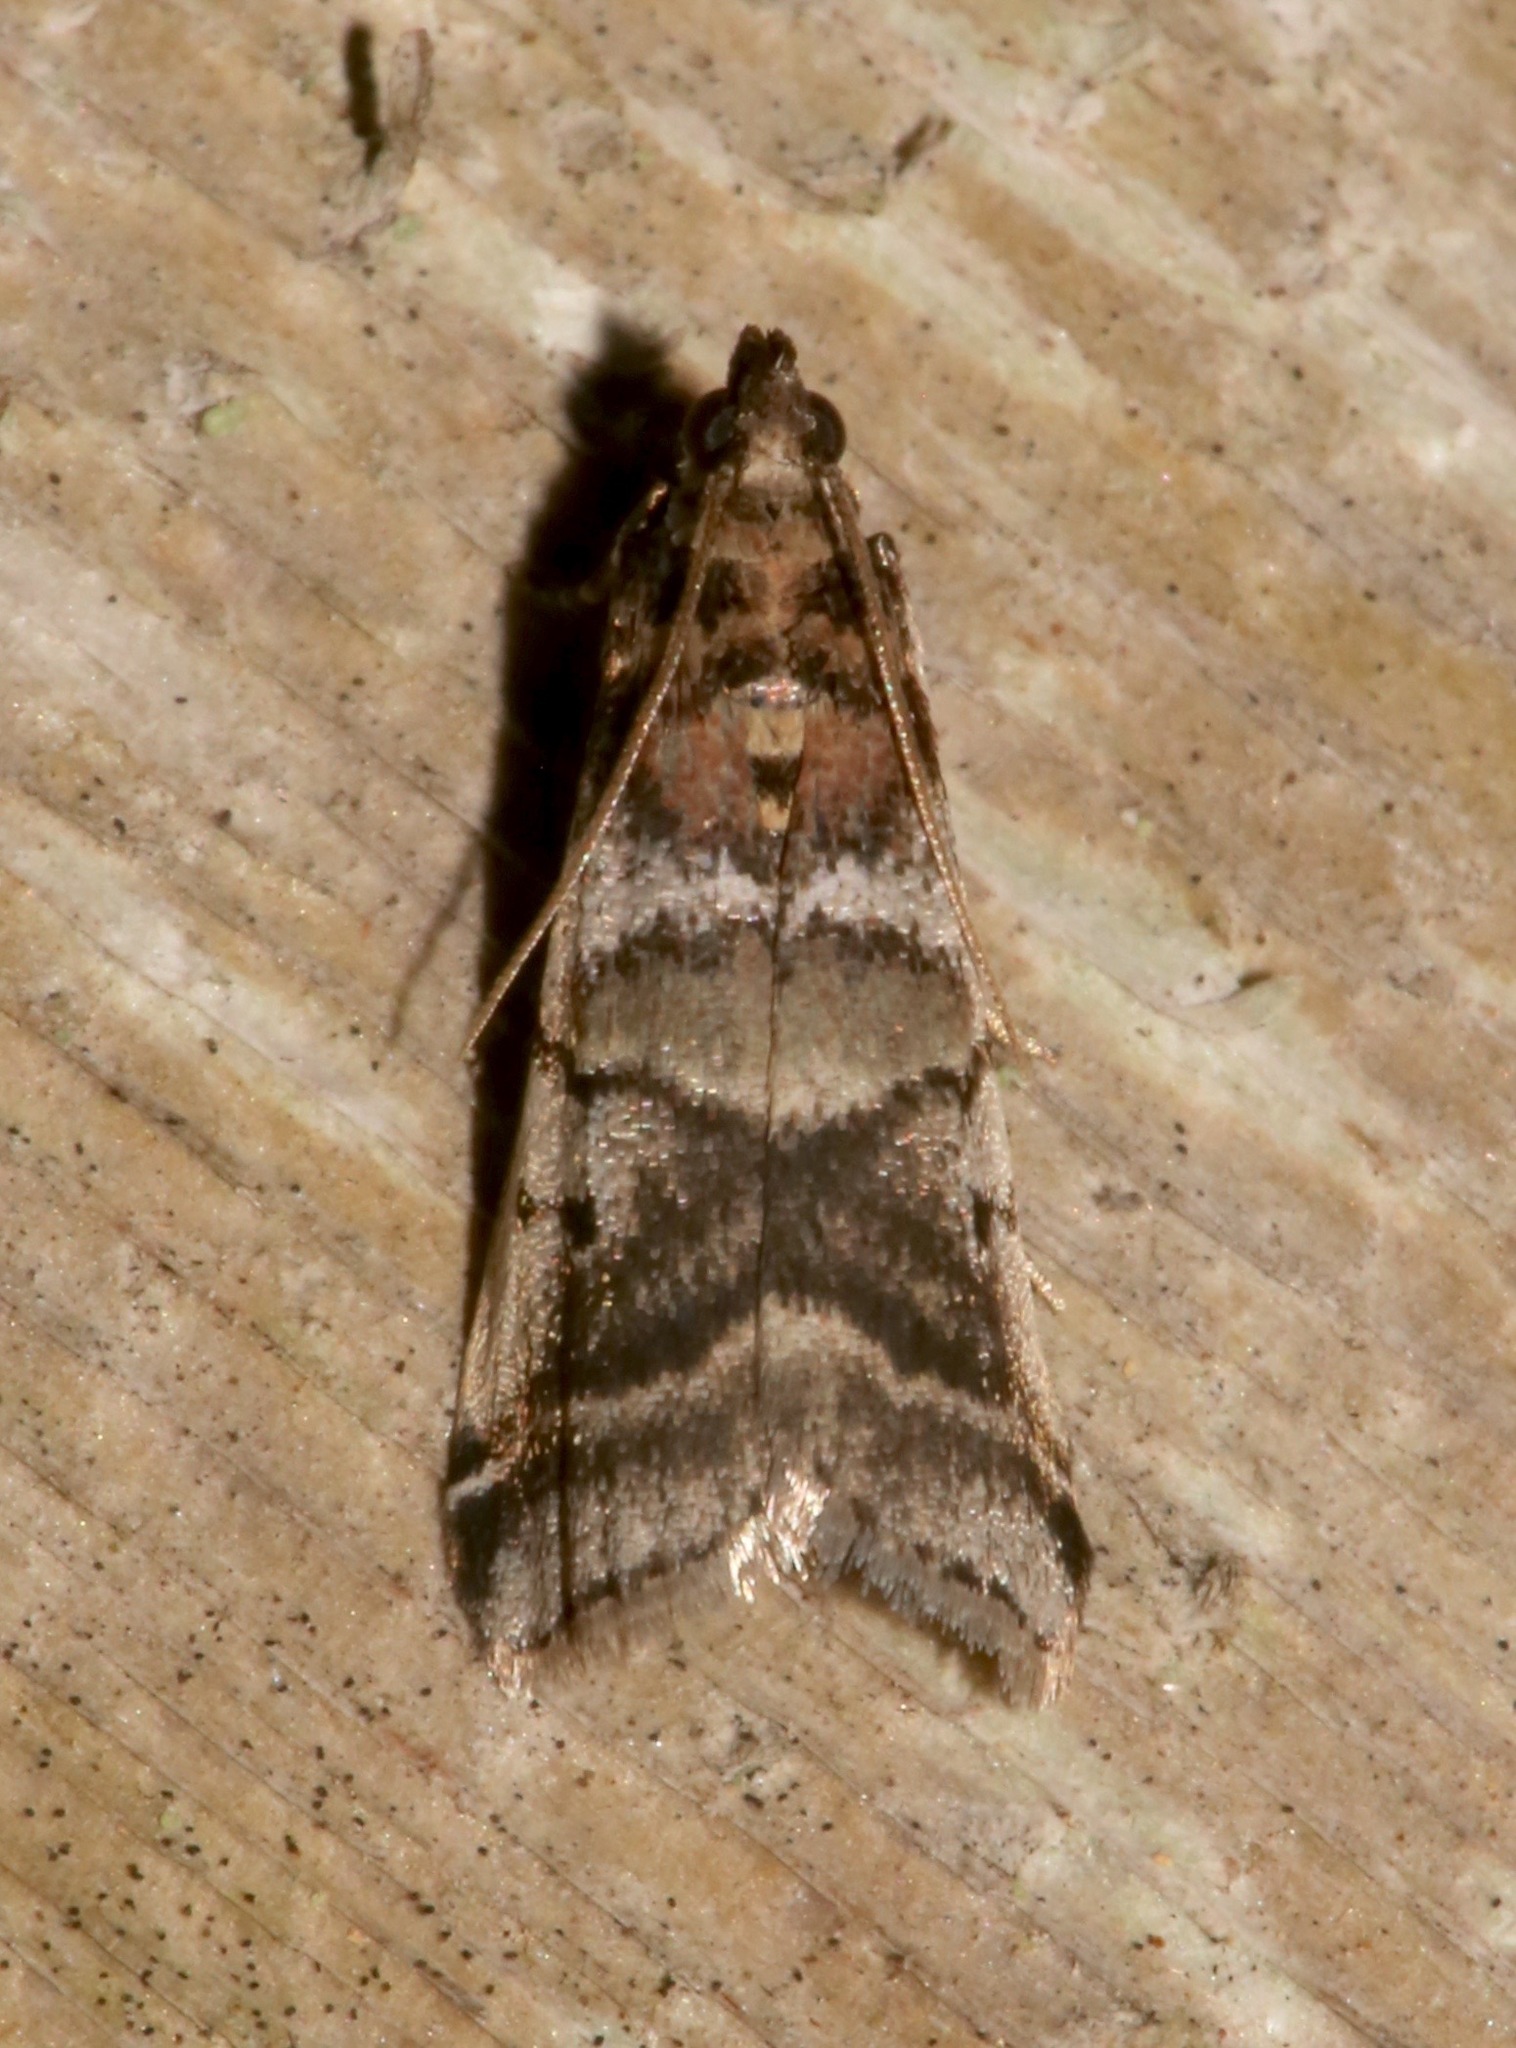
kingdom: Animalia
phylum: Arthropoda
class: Insecta
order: Lepidoptera
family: Pyralidae
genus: Acrobasis
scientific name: Acrobasis indigenella
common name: Leaf crumpler moth
